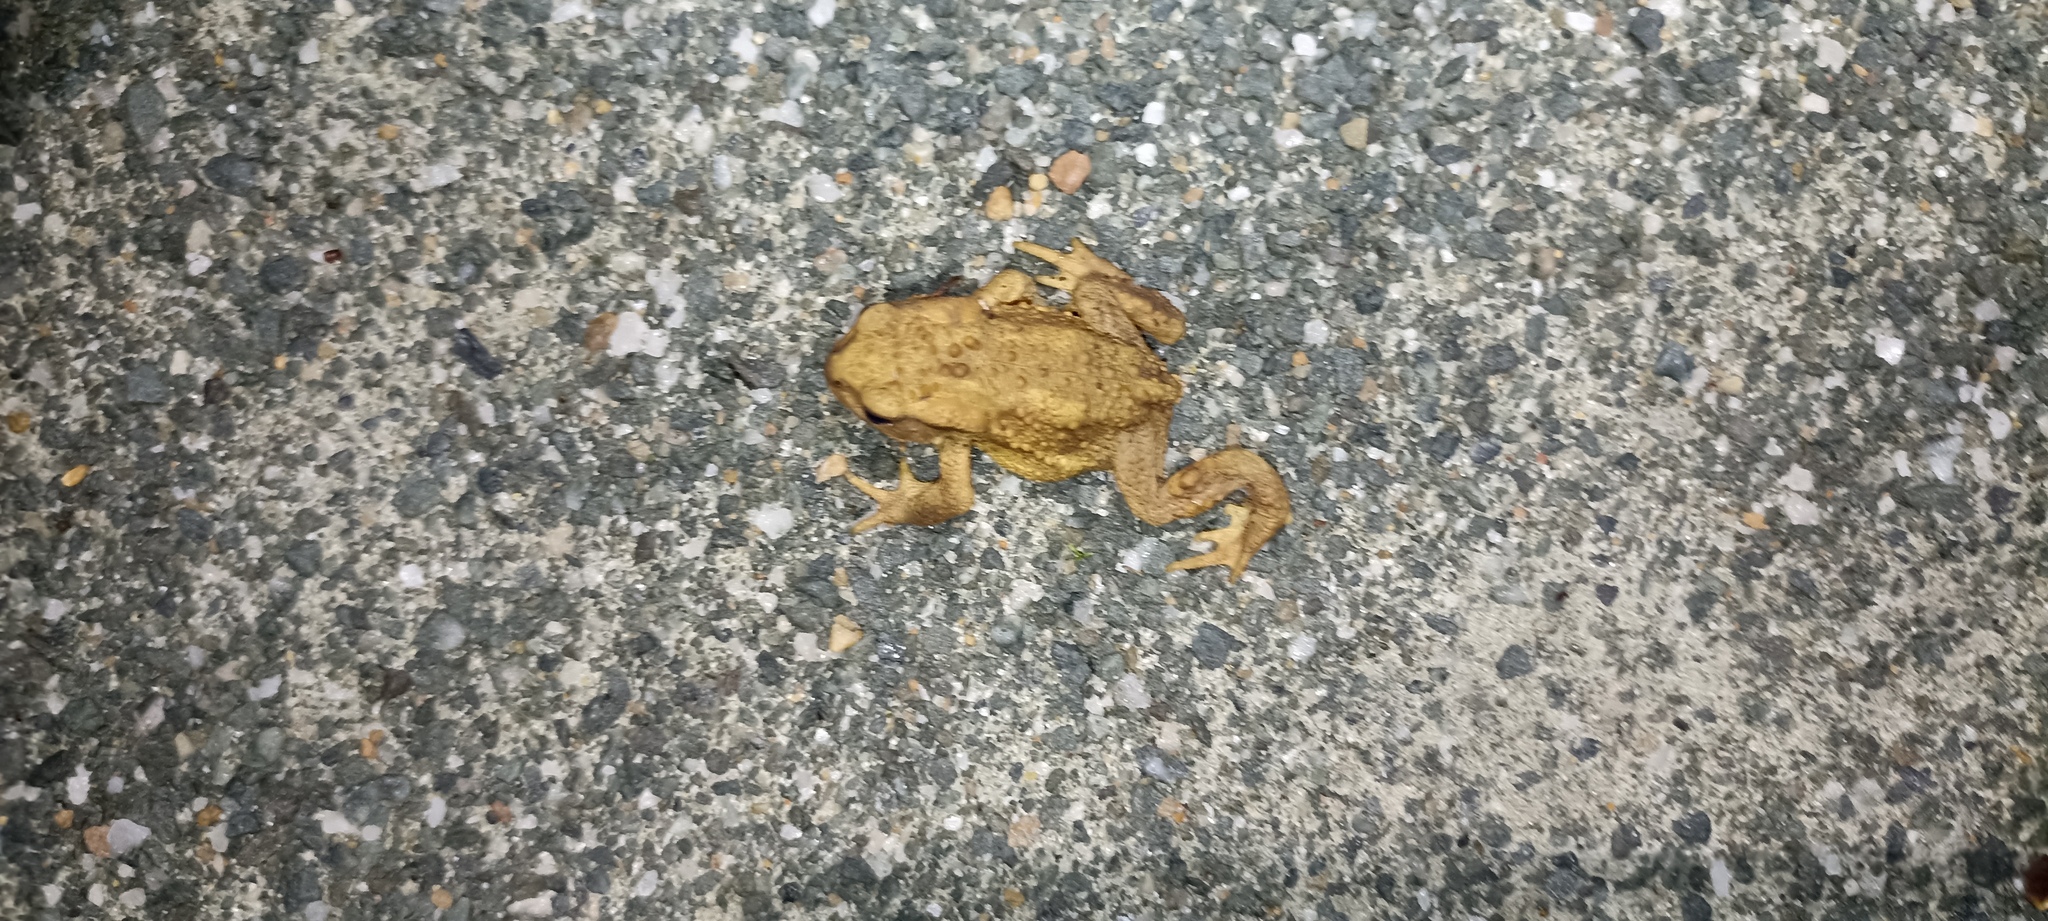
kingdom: Animalia
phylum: Chordata
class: Amphibia
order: Anura
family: Bufonidae
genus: Bufo
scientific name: Bufo spinosus
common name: Western common toad
